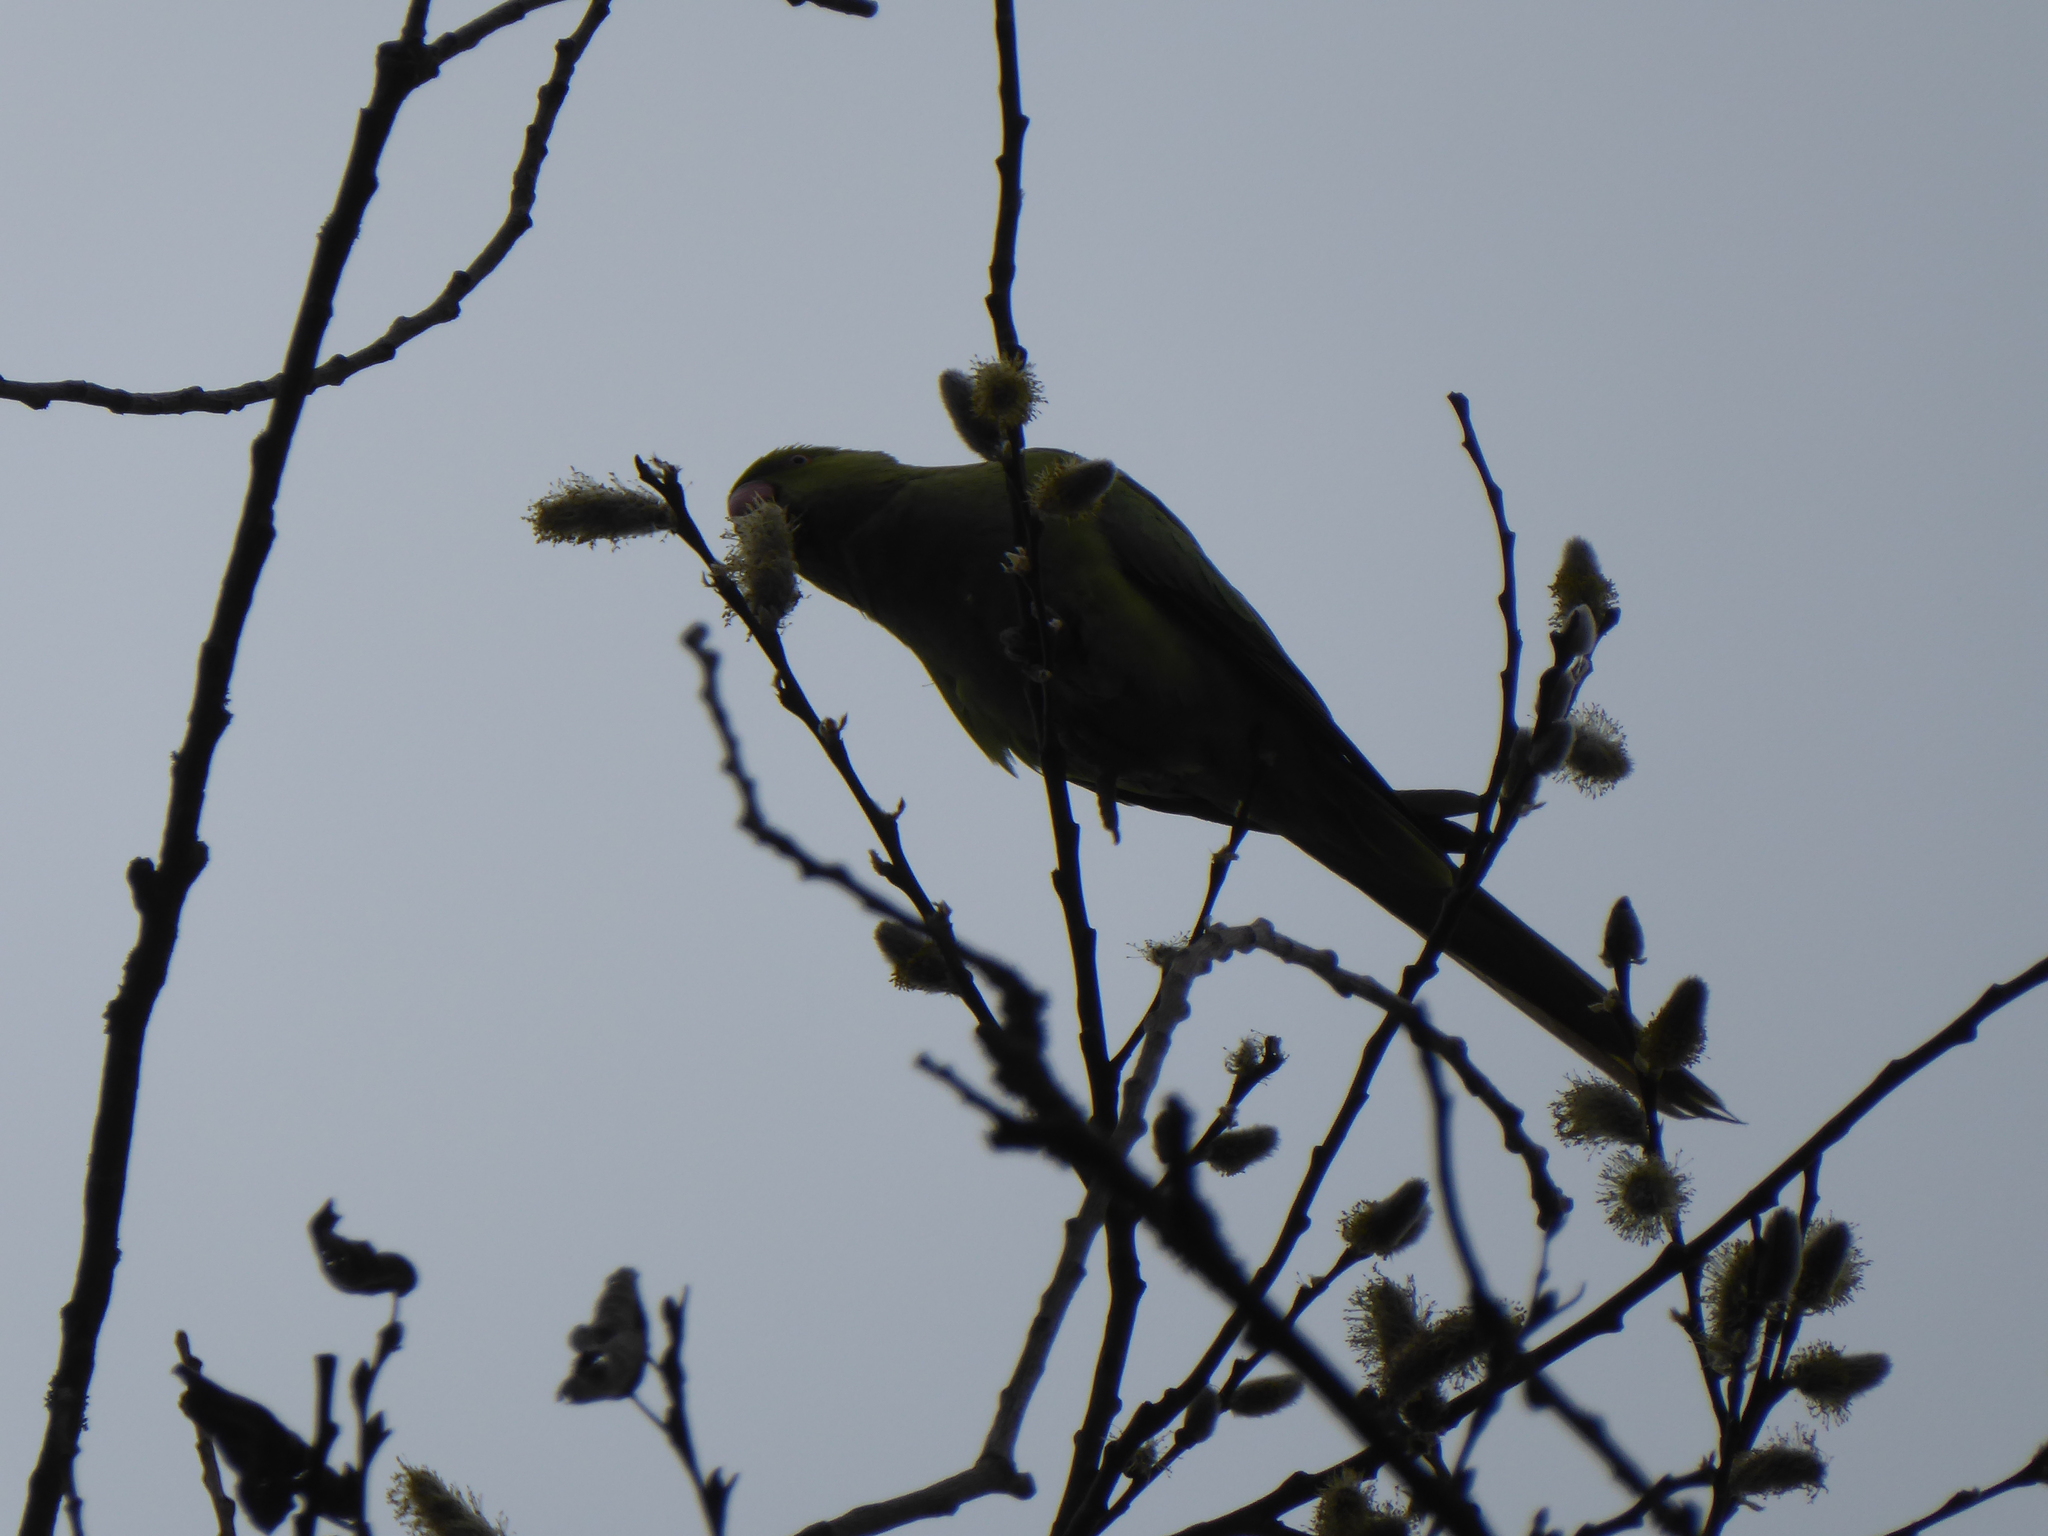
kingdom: Animalia
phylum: Chordata
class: Aves
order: Psittaciformes
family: Psittacidae
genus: Psittacula
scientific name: Psittacula krameri
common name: Rose-ringed parakeet
